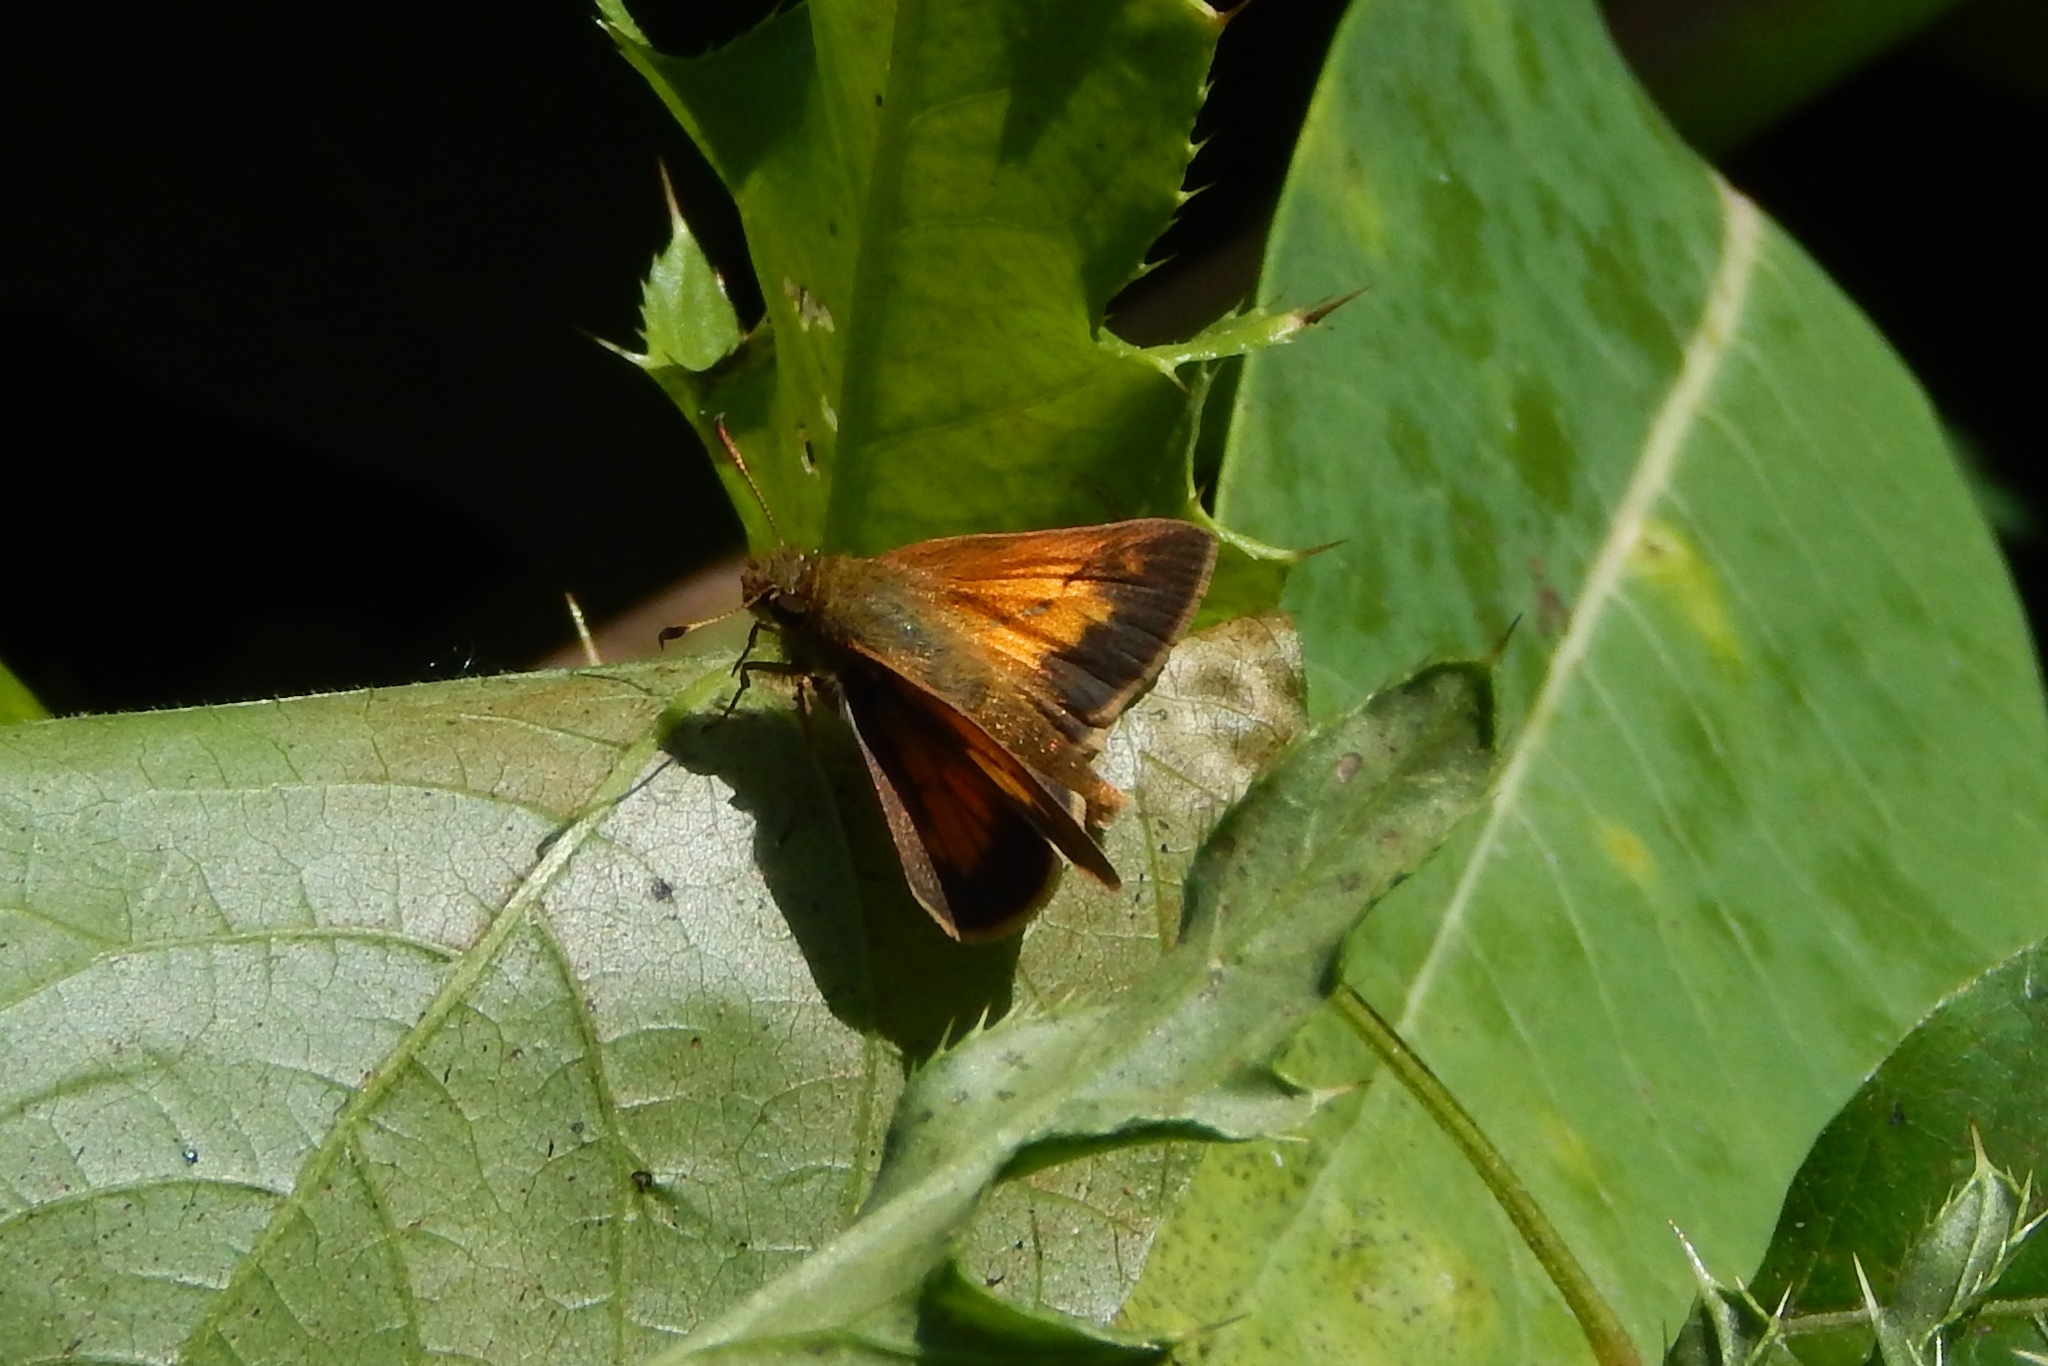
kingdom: Animalia
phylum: Arthropoda
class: Insecta
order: Lepidoptera
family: Hesperiidae
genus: Poanes
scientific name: Poanes aaroni
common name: Aaron's skipper
